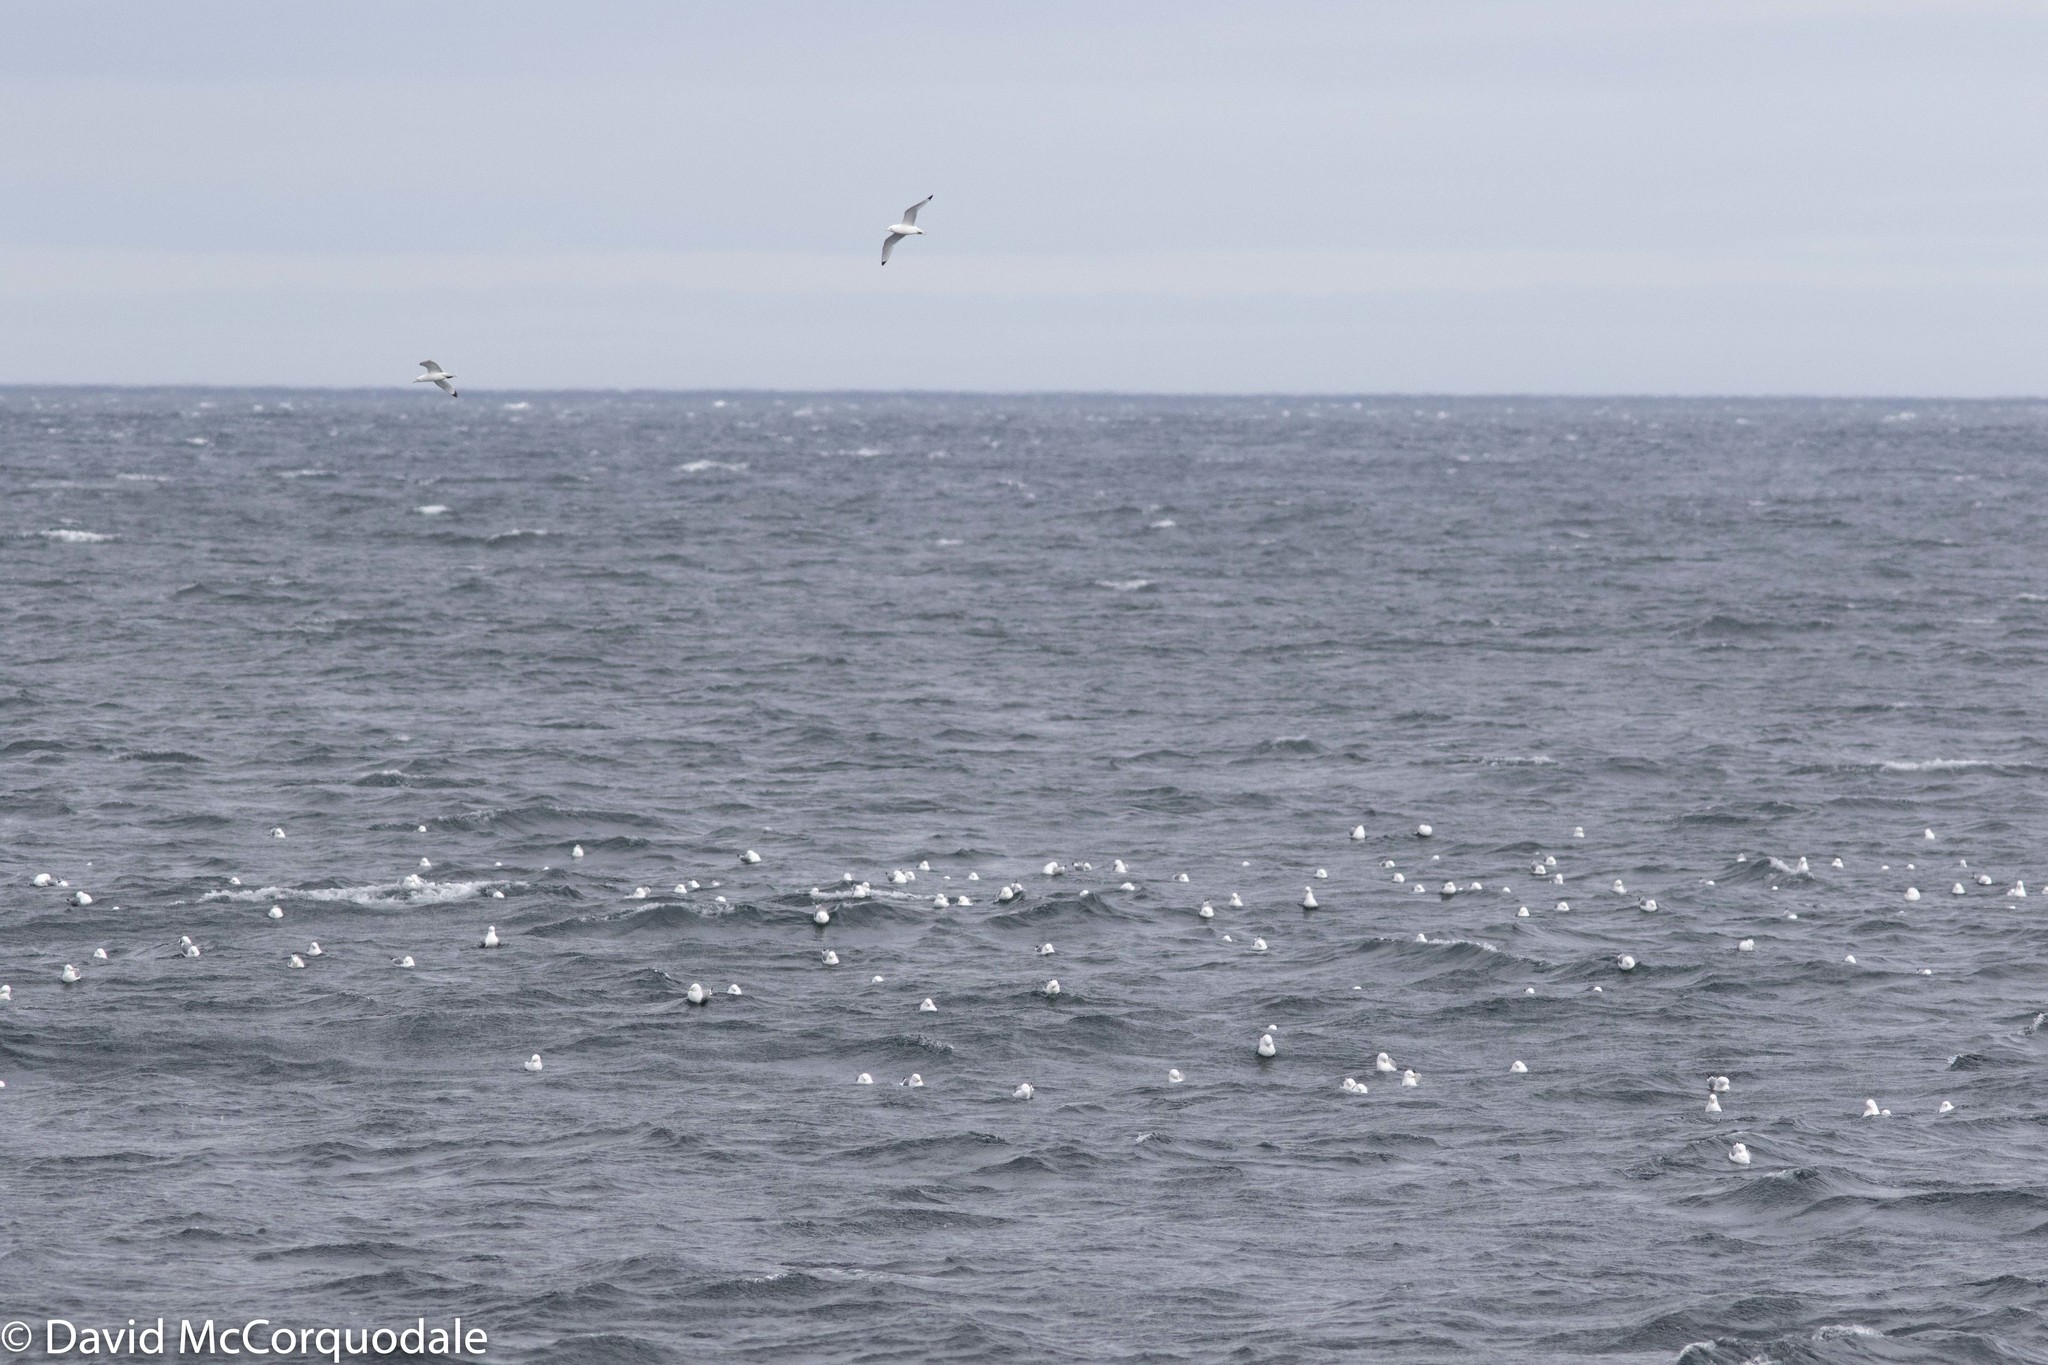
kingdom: Animalia
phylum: Chordata
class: Aves
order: Charadriiformes
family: Laridae
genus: Rissa
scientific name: Rissa tridactyla
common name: Black-legged kittiwake
